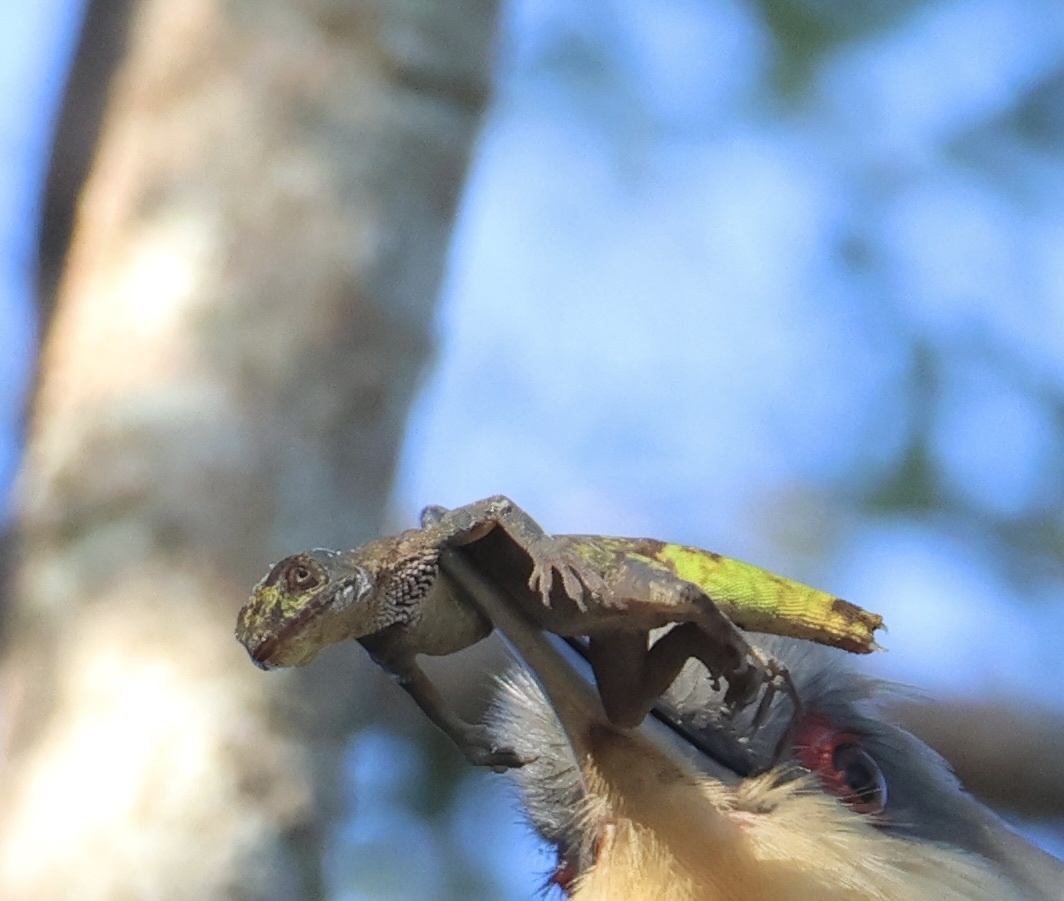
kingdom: Animalia
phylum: Chordata
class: Squamata
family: Dactyloidae
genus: Anolis
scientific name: Anolis callainus
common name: Dominican green anole
